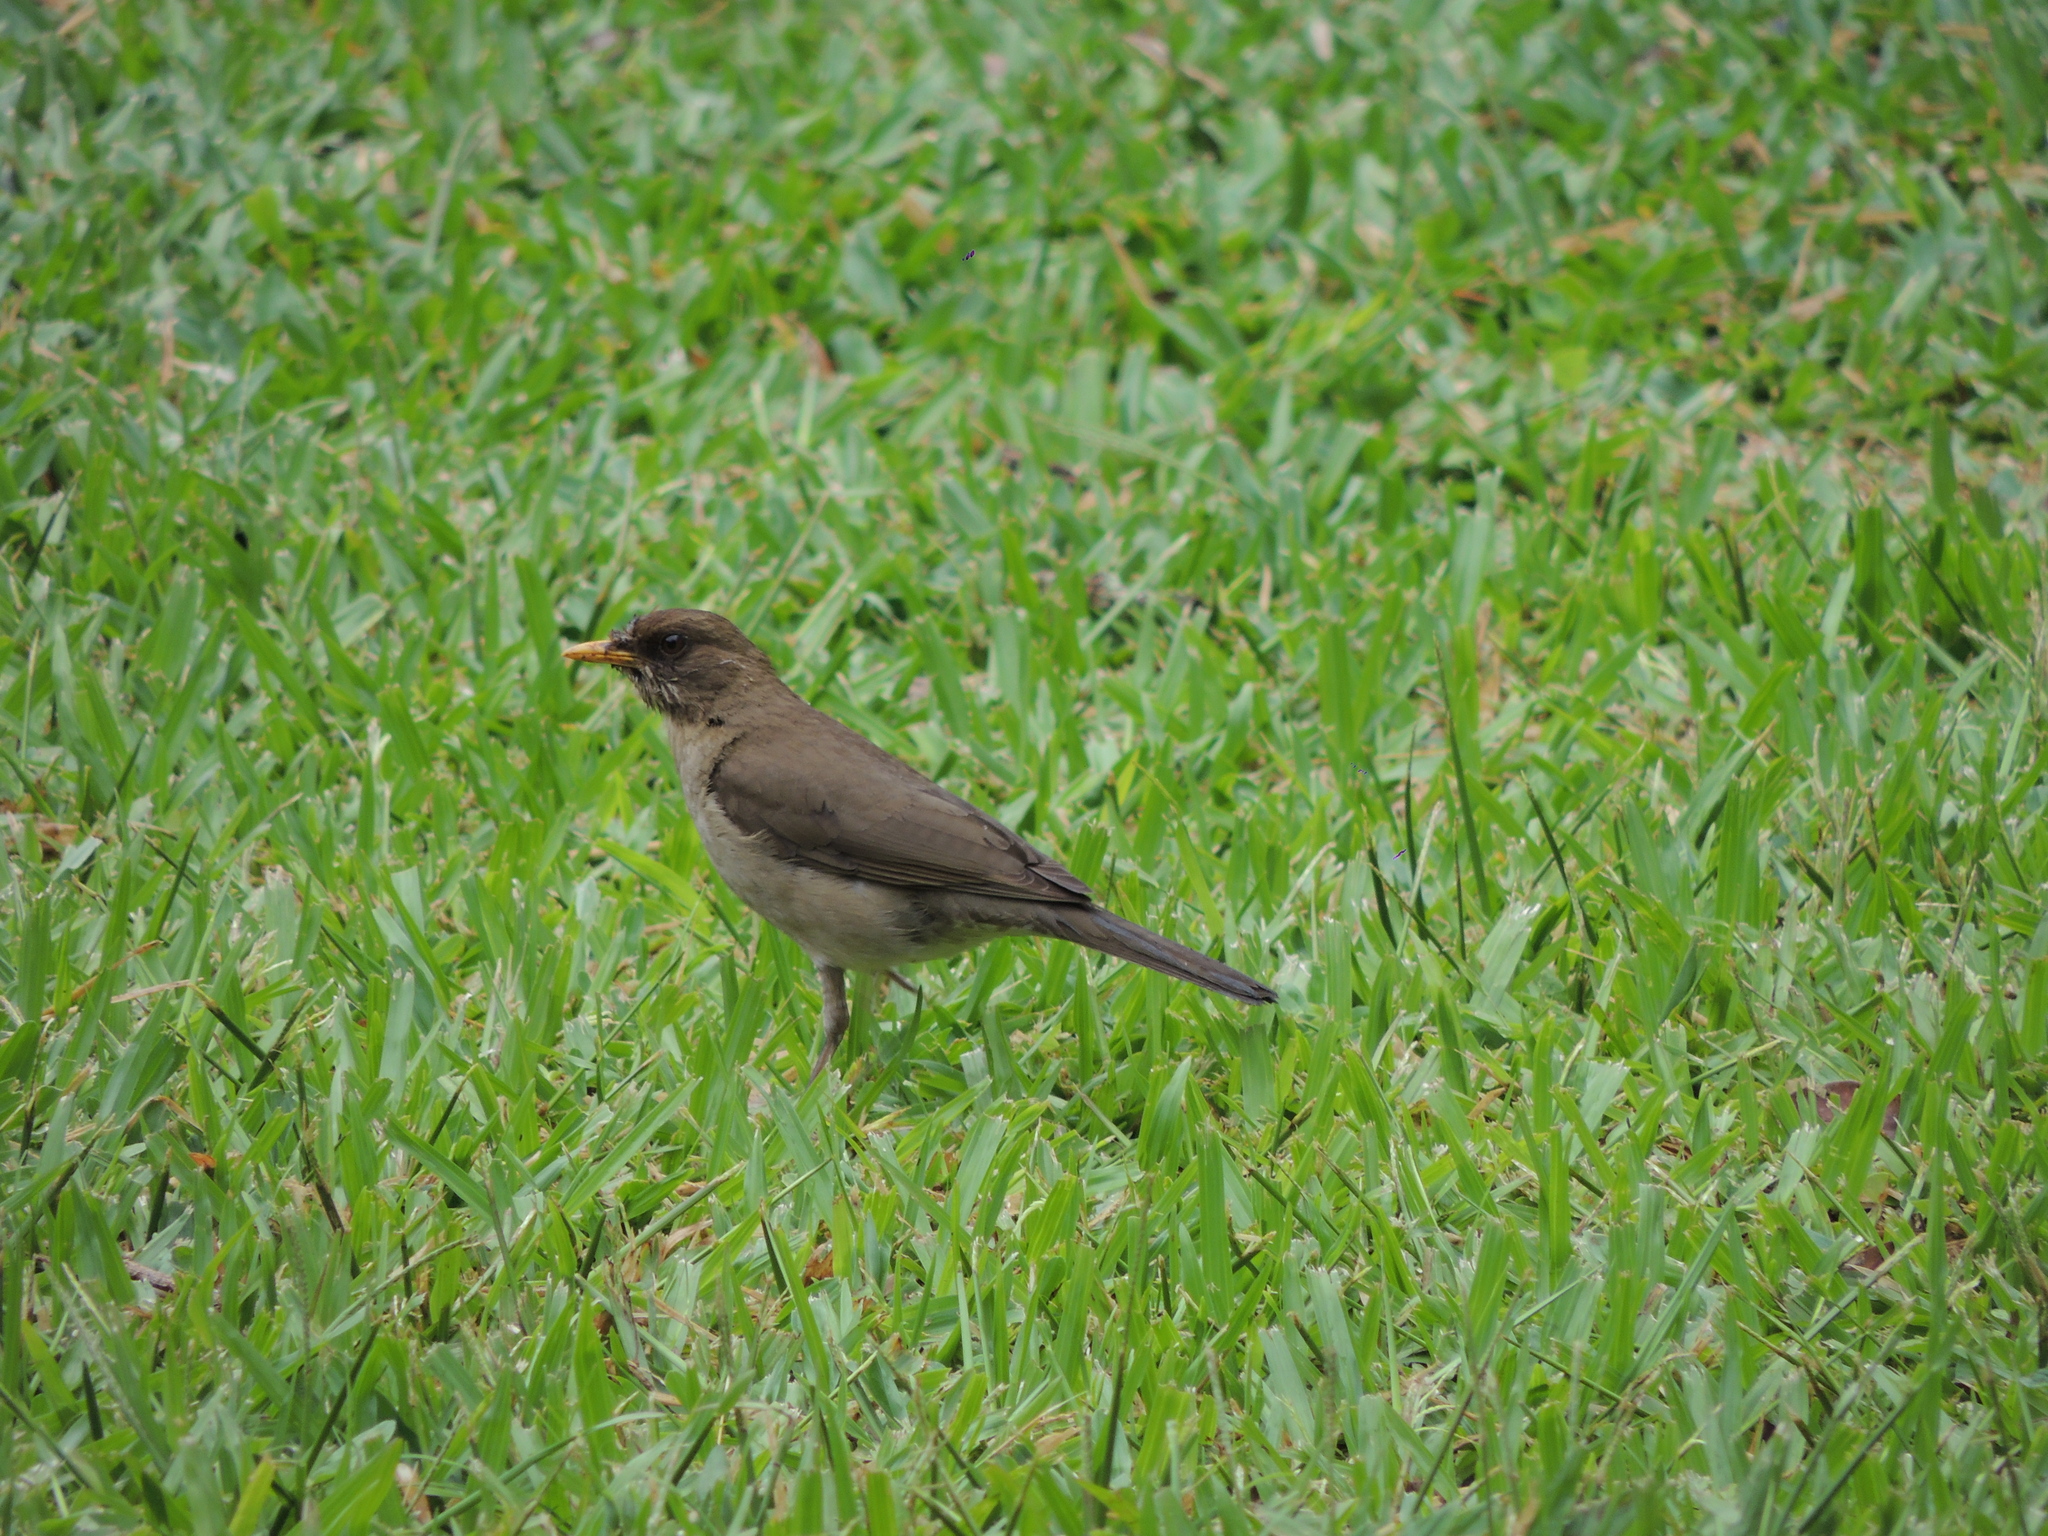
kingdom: Animalia
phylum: Chordata
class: Aves
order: Passeriformes
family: Turdidae
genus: Turdus
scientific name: Turdus amaurochalinus
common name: Creamy-bellied thrush
